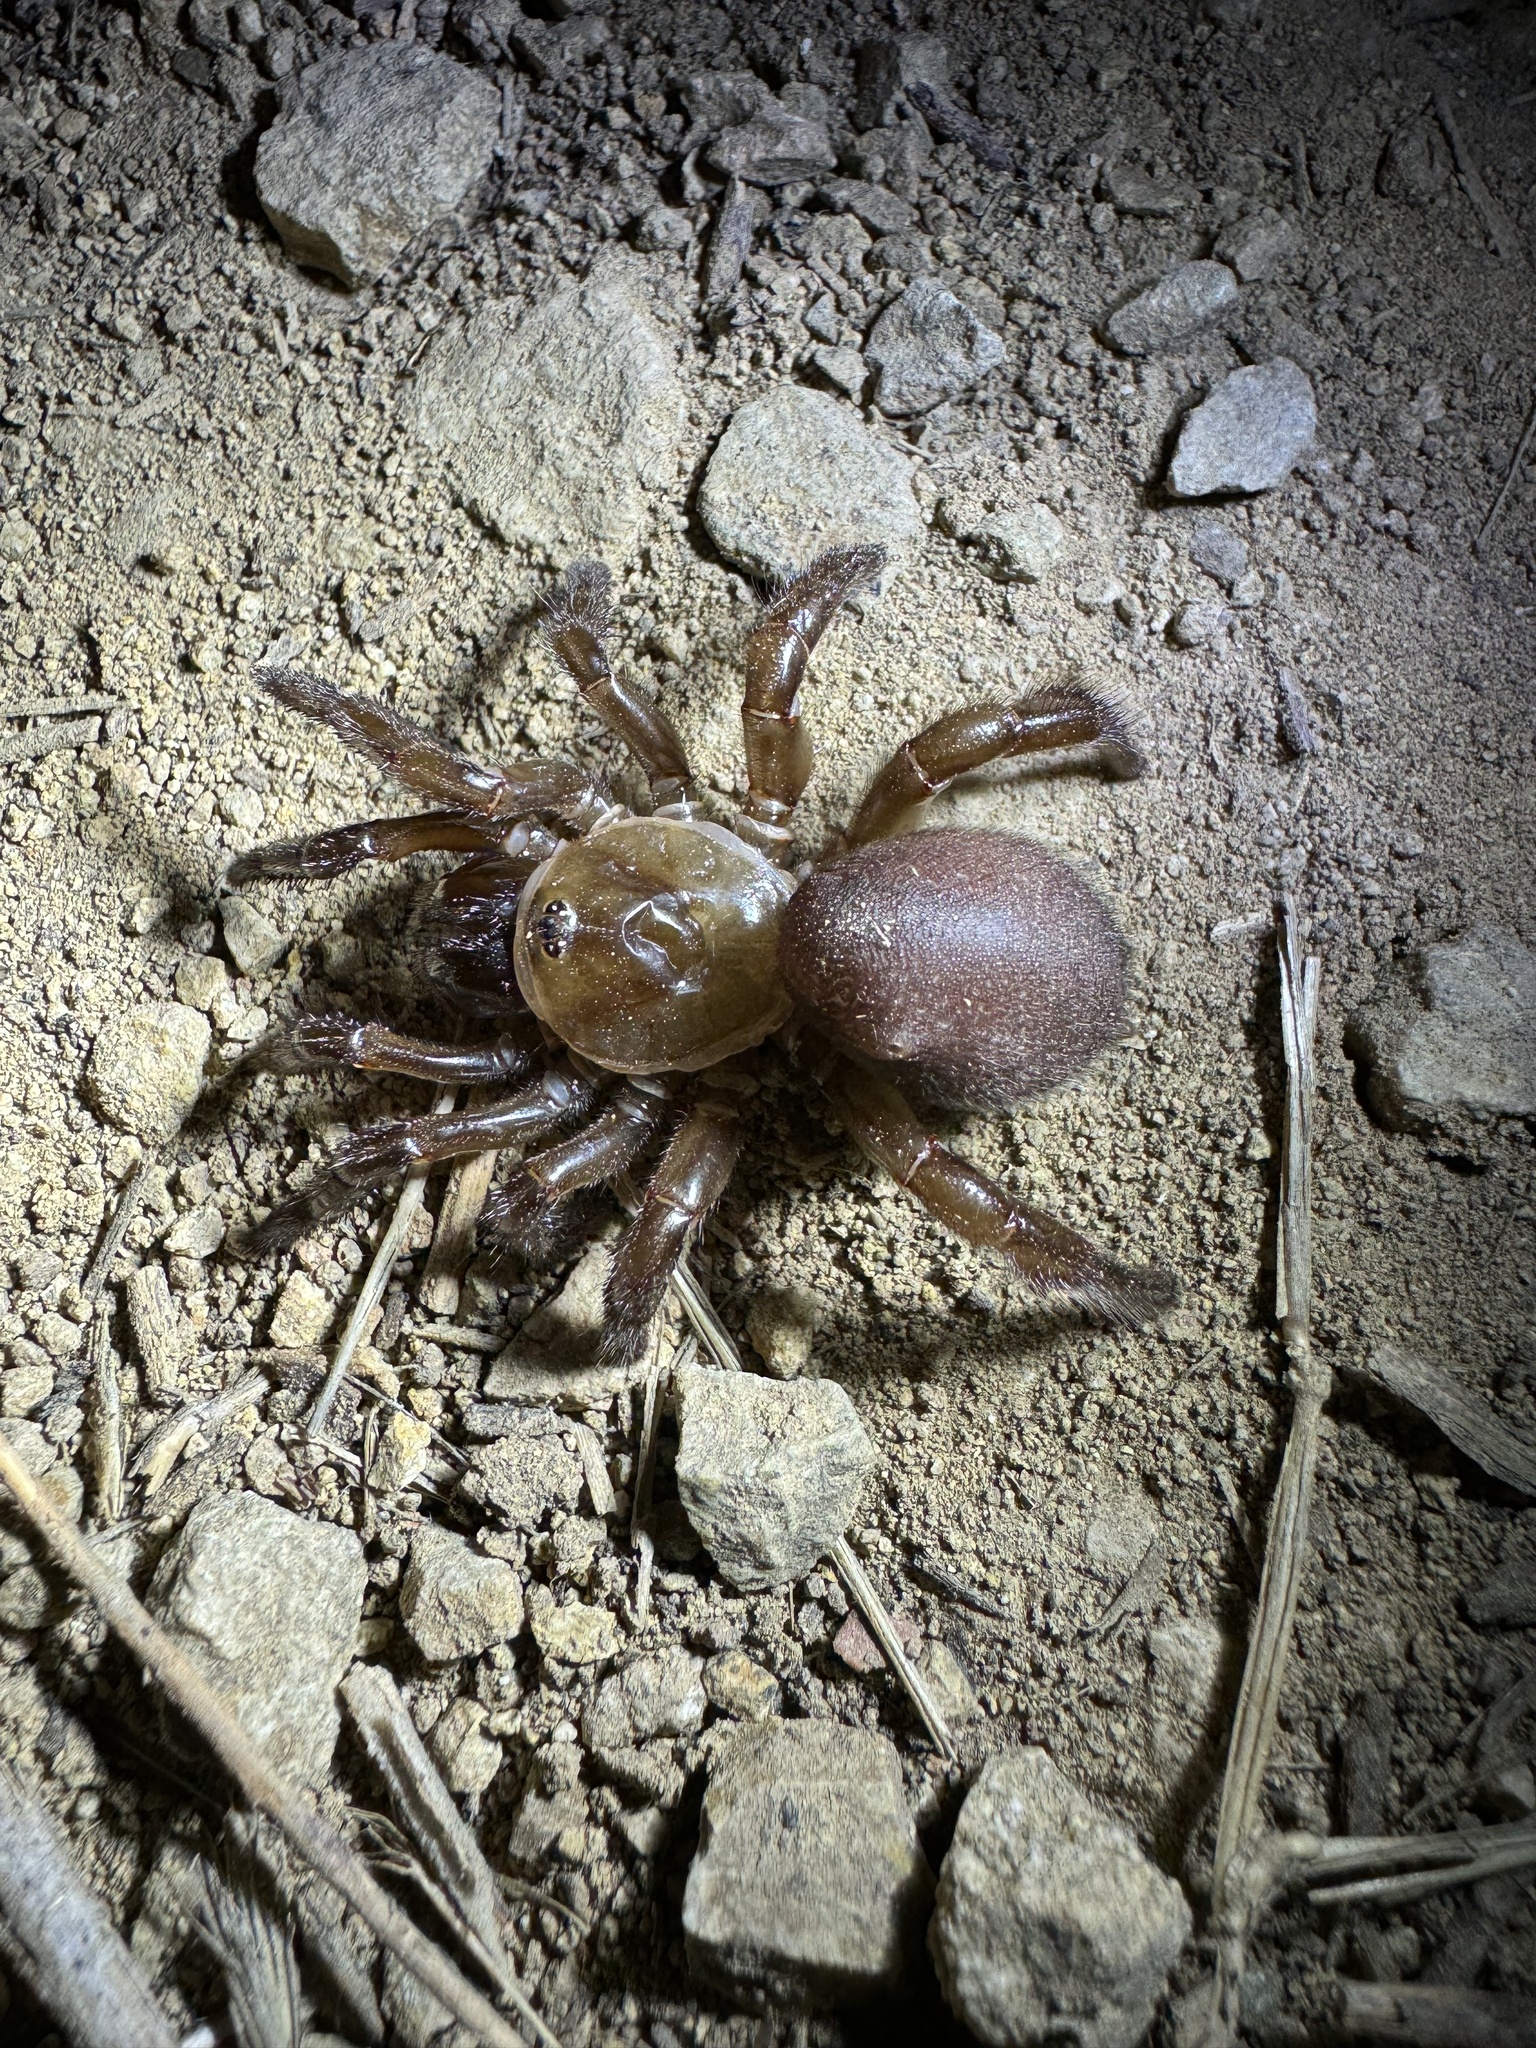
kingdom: Animalia
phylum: Arthropoda
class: Arachnida
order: Araneae
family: Halonoproctidae
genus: Bothriocyrtum
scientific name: Bothriocyrtum californicum
